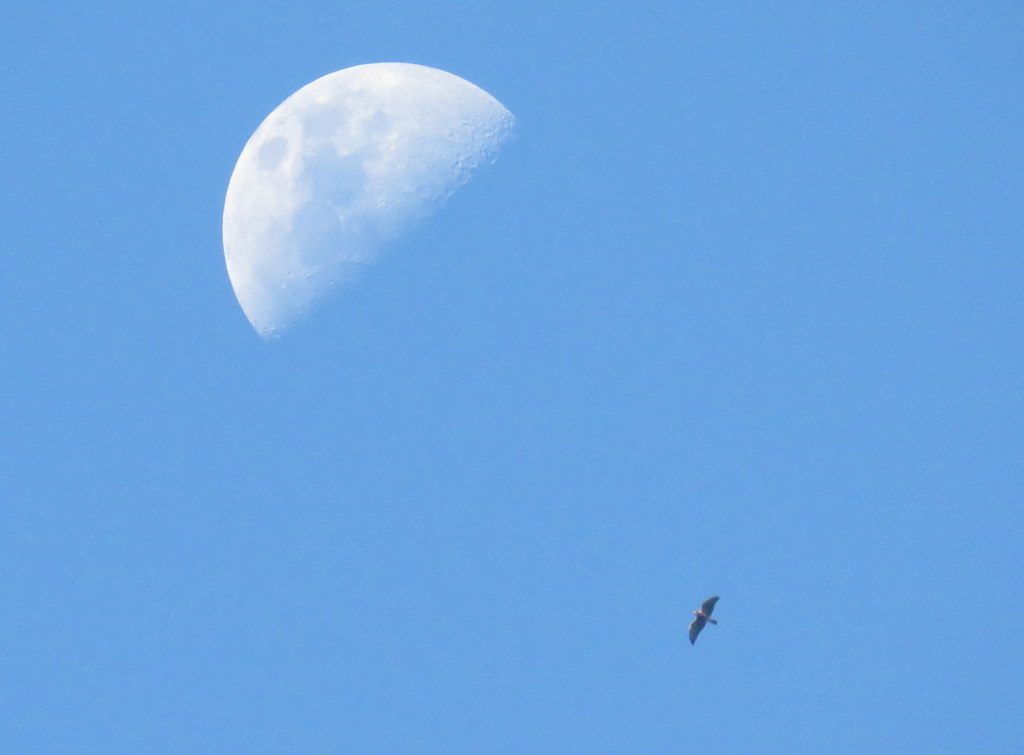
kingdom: Animalia
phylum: Chordata
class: Aves
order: Accipitriformes
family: Accipitridae
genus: Buteo
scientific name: Buteo swainsoni
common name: Swainson's hawk
